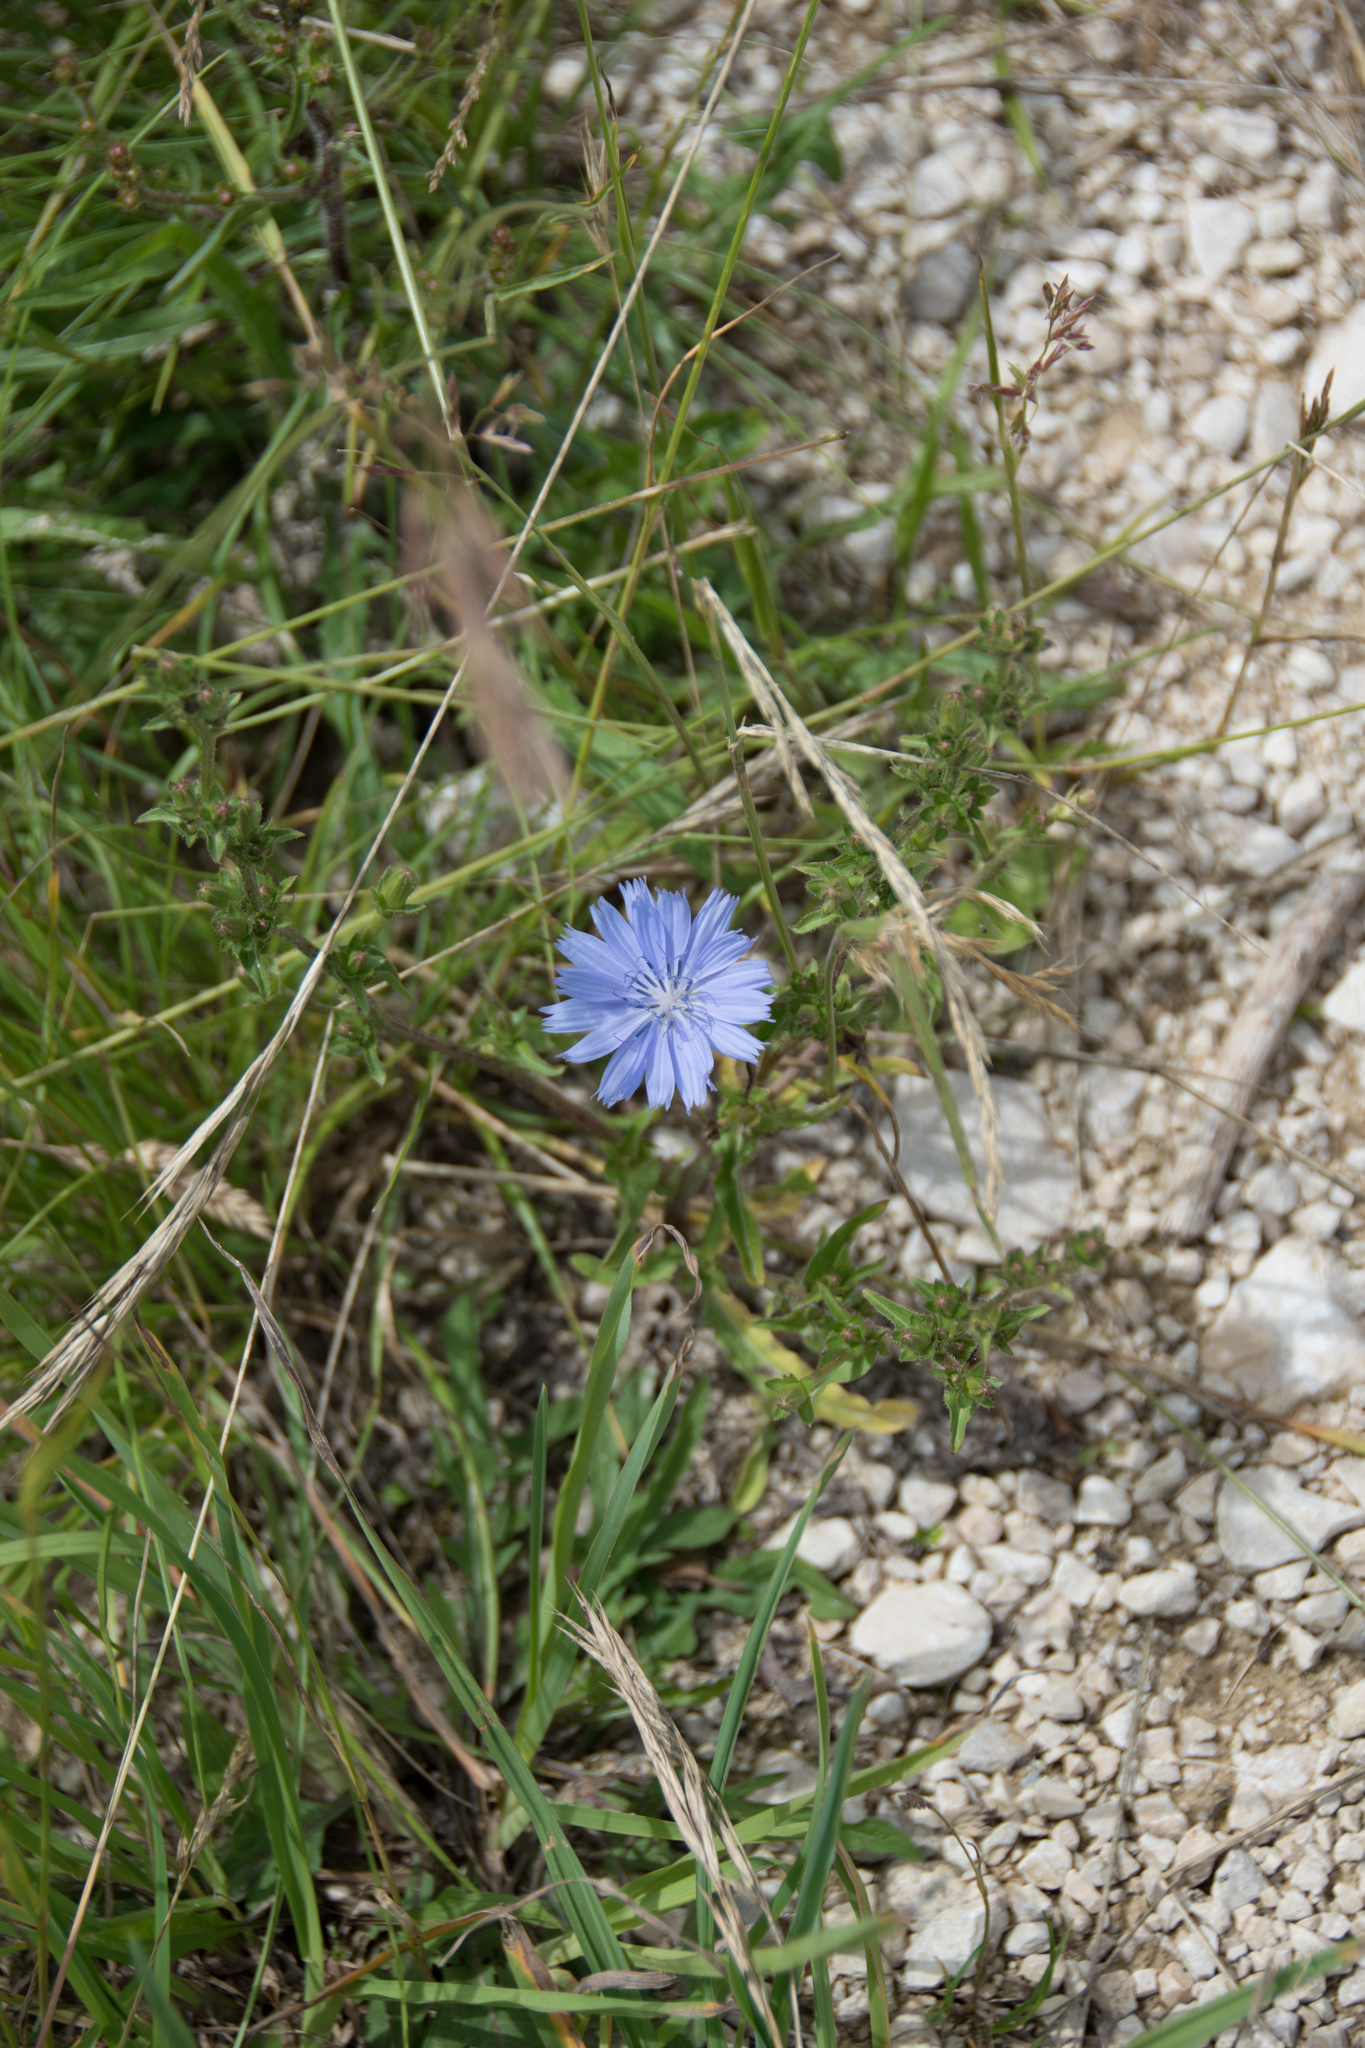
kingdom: Plantae
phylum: Tracheophyta
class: Magnoliopsida
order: Asterales
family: Asteraceae
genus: Cichorium
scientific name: Cichorium intybus
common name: Chicory
